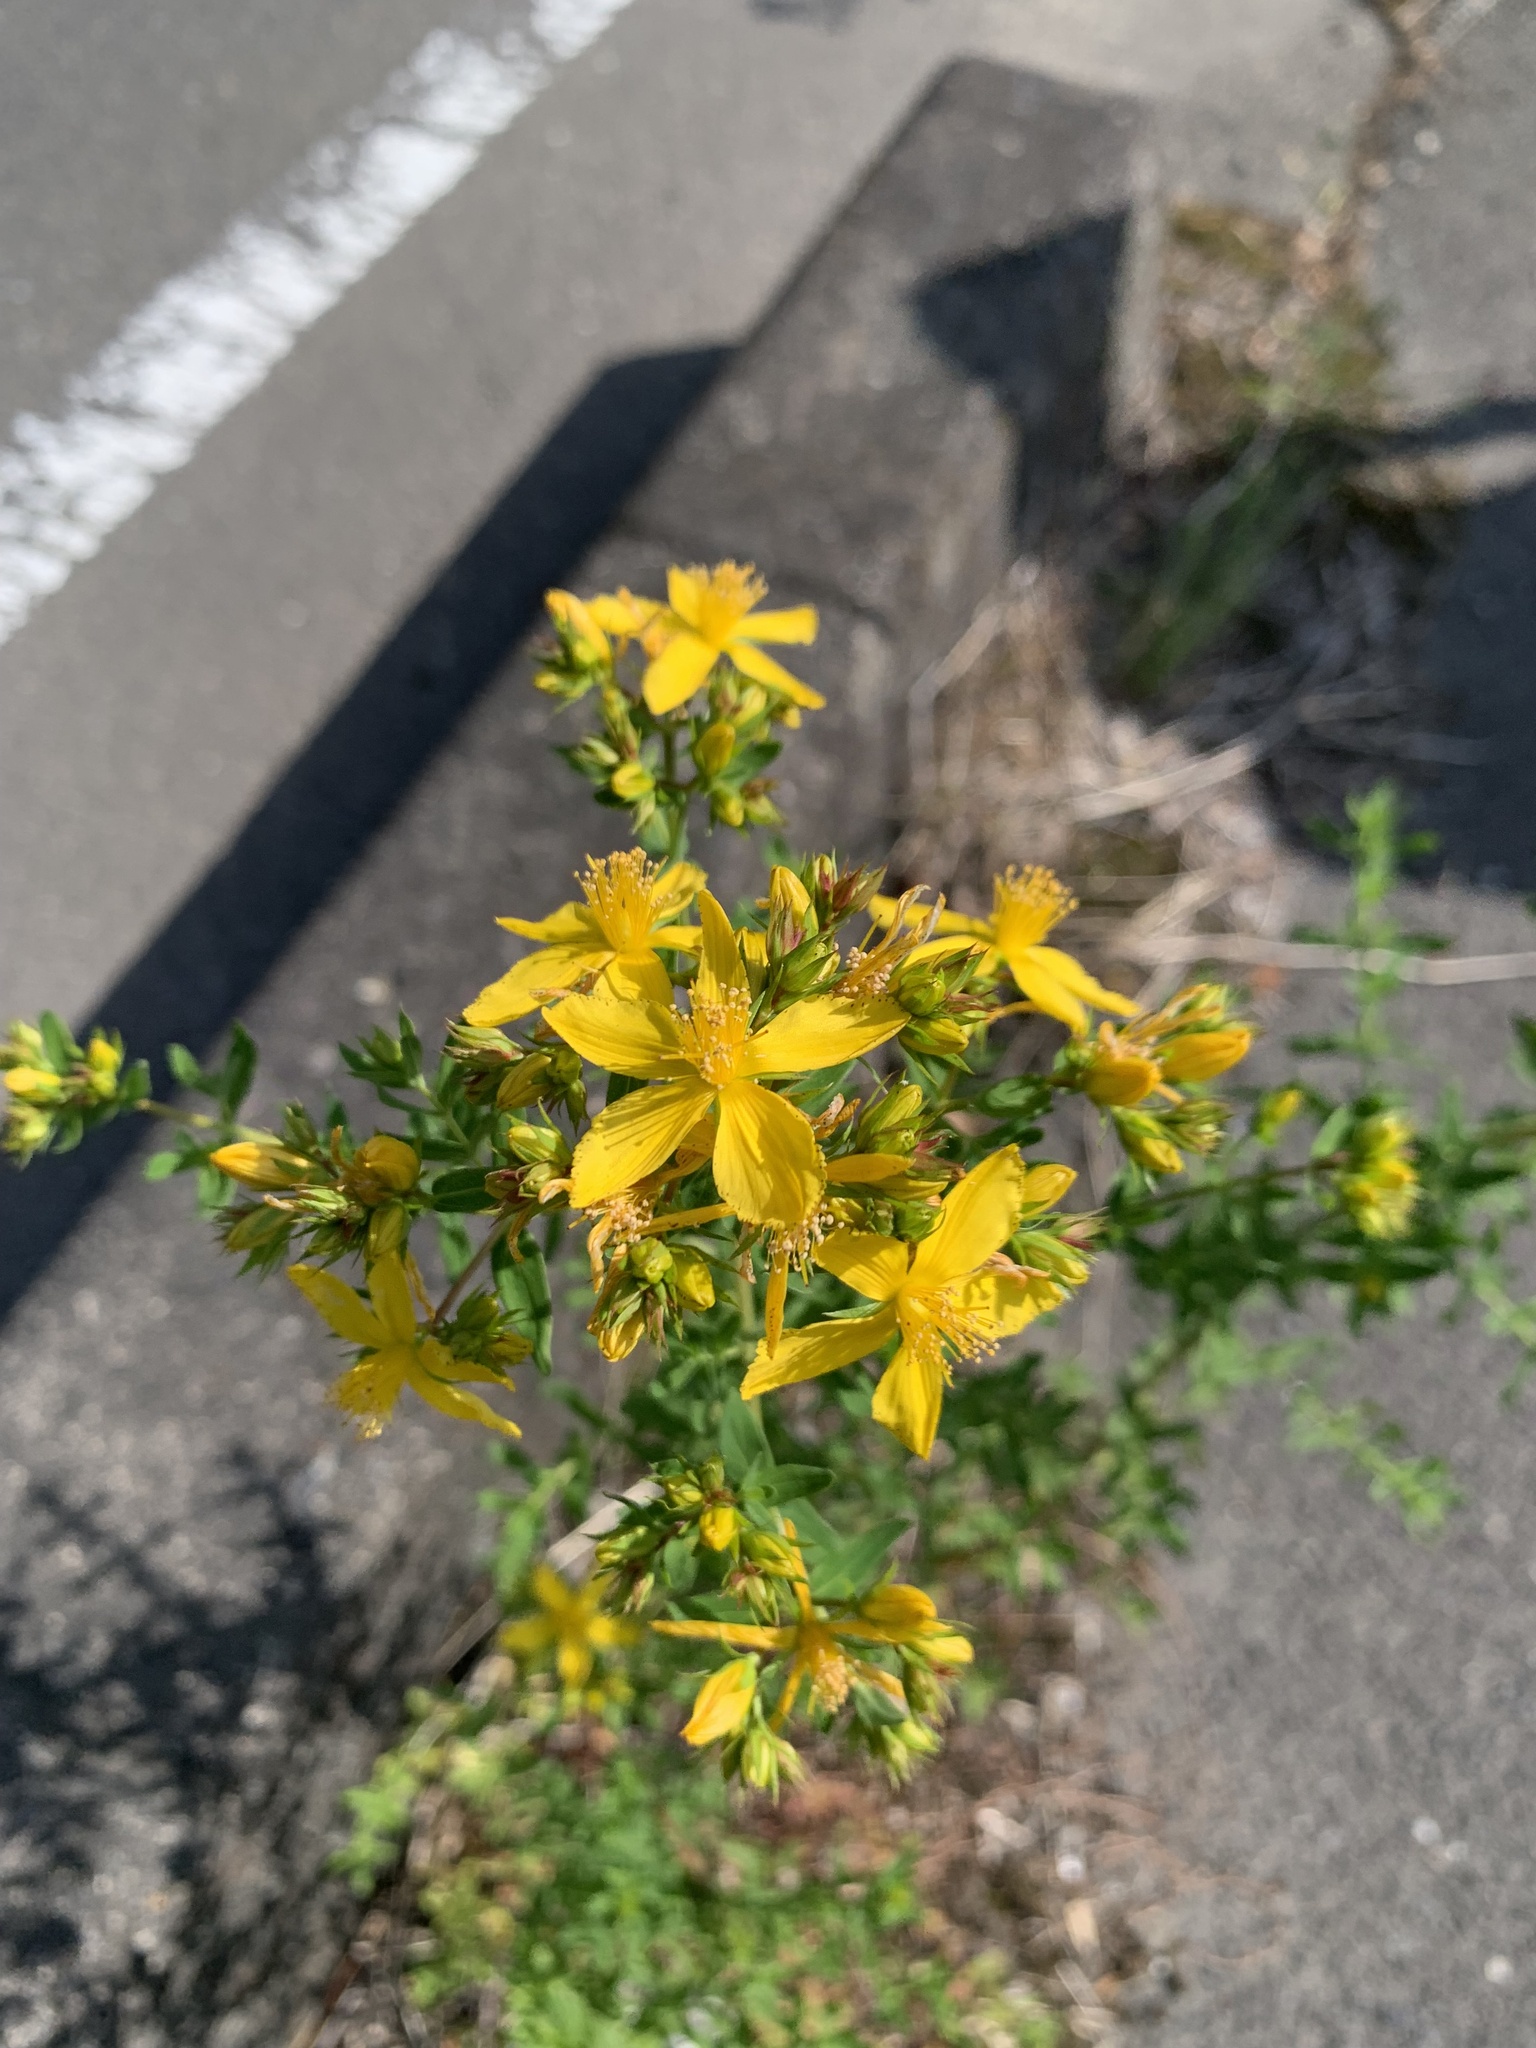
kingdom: Plantae
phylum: Tracheophyta
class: Magnoliopsida
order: Malpighiales
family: Hypericaceae
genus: Hypericum
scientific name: Hypericum perforatum
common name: Common st. johnswort
